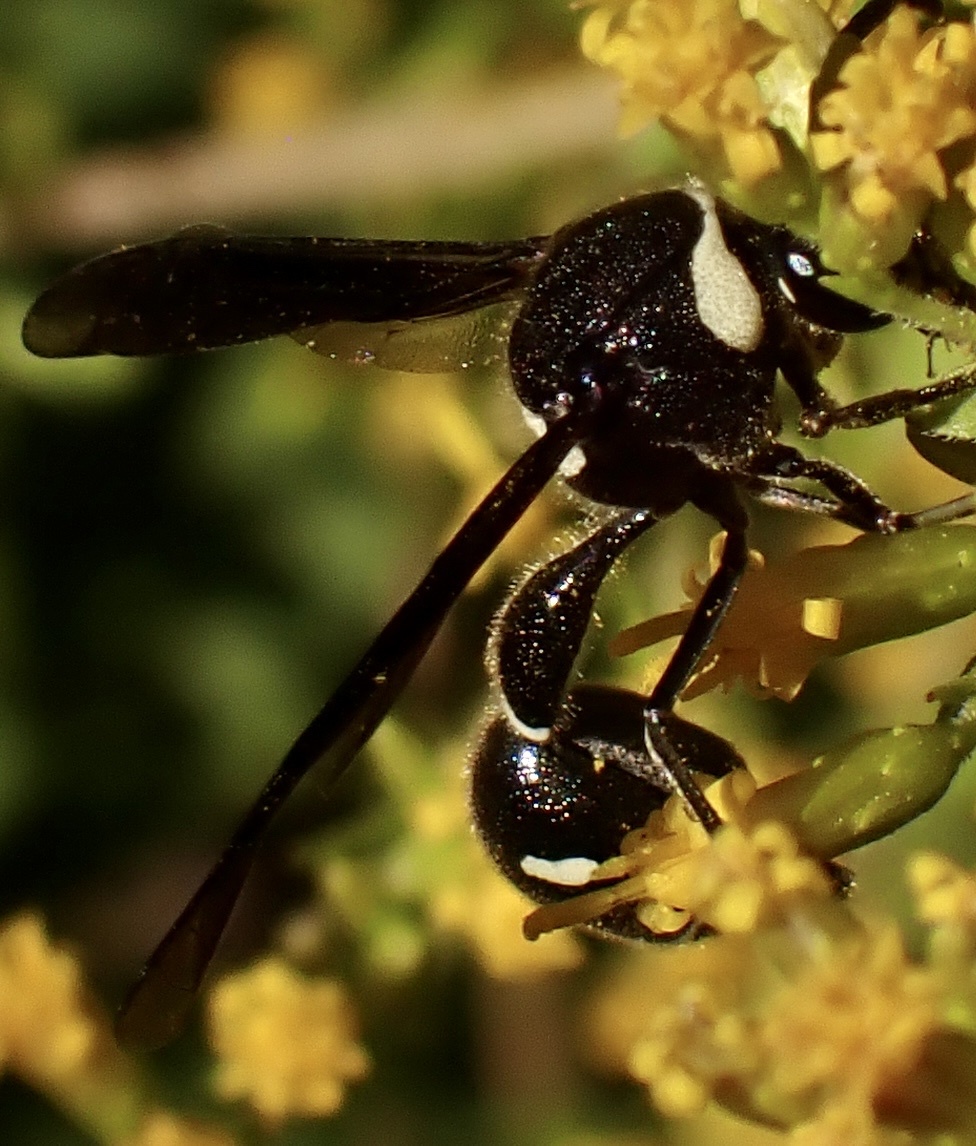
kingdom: Animalia
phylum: Arthropoda
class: Insecta
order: Hymenoptera
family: Vespidae
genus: Eumenes
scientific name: Eumenes fraternus
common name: Fraternal potter wasp
